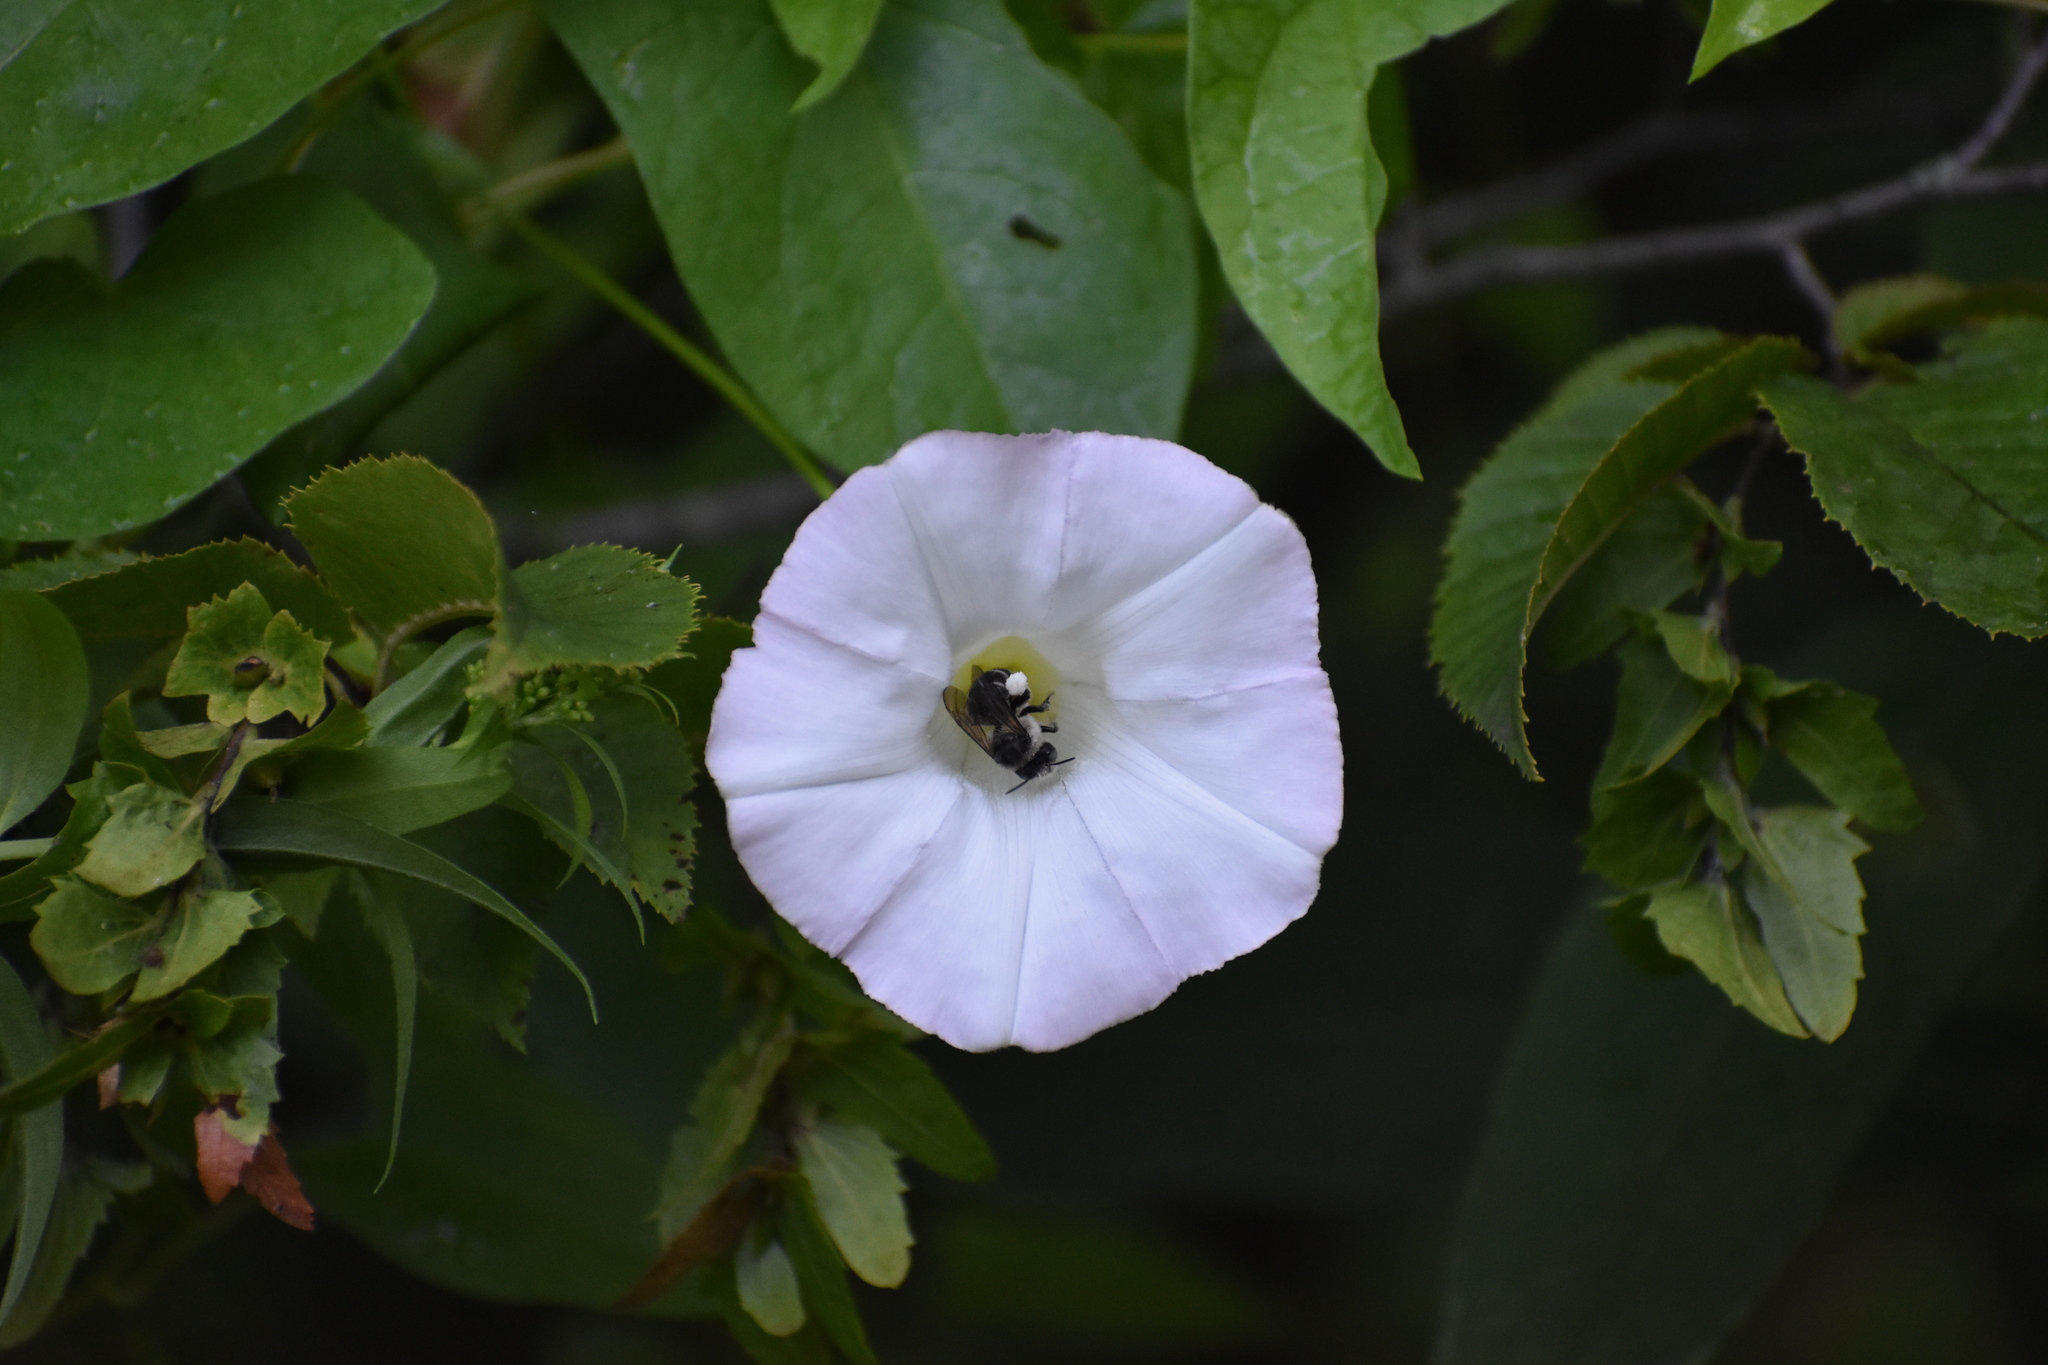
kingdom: Animalia
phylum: Arthropoda
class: Insecta
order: Hymenoptera
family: Apidae
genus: Anthophora
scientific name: Anthophora terminalis
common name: Orange-tipped wood-digger bee
